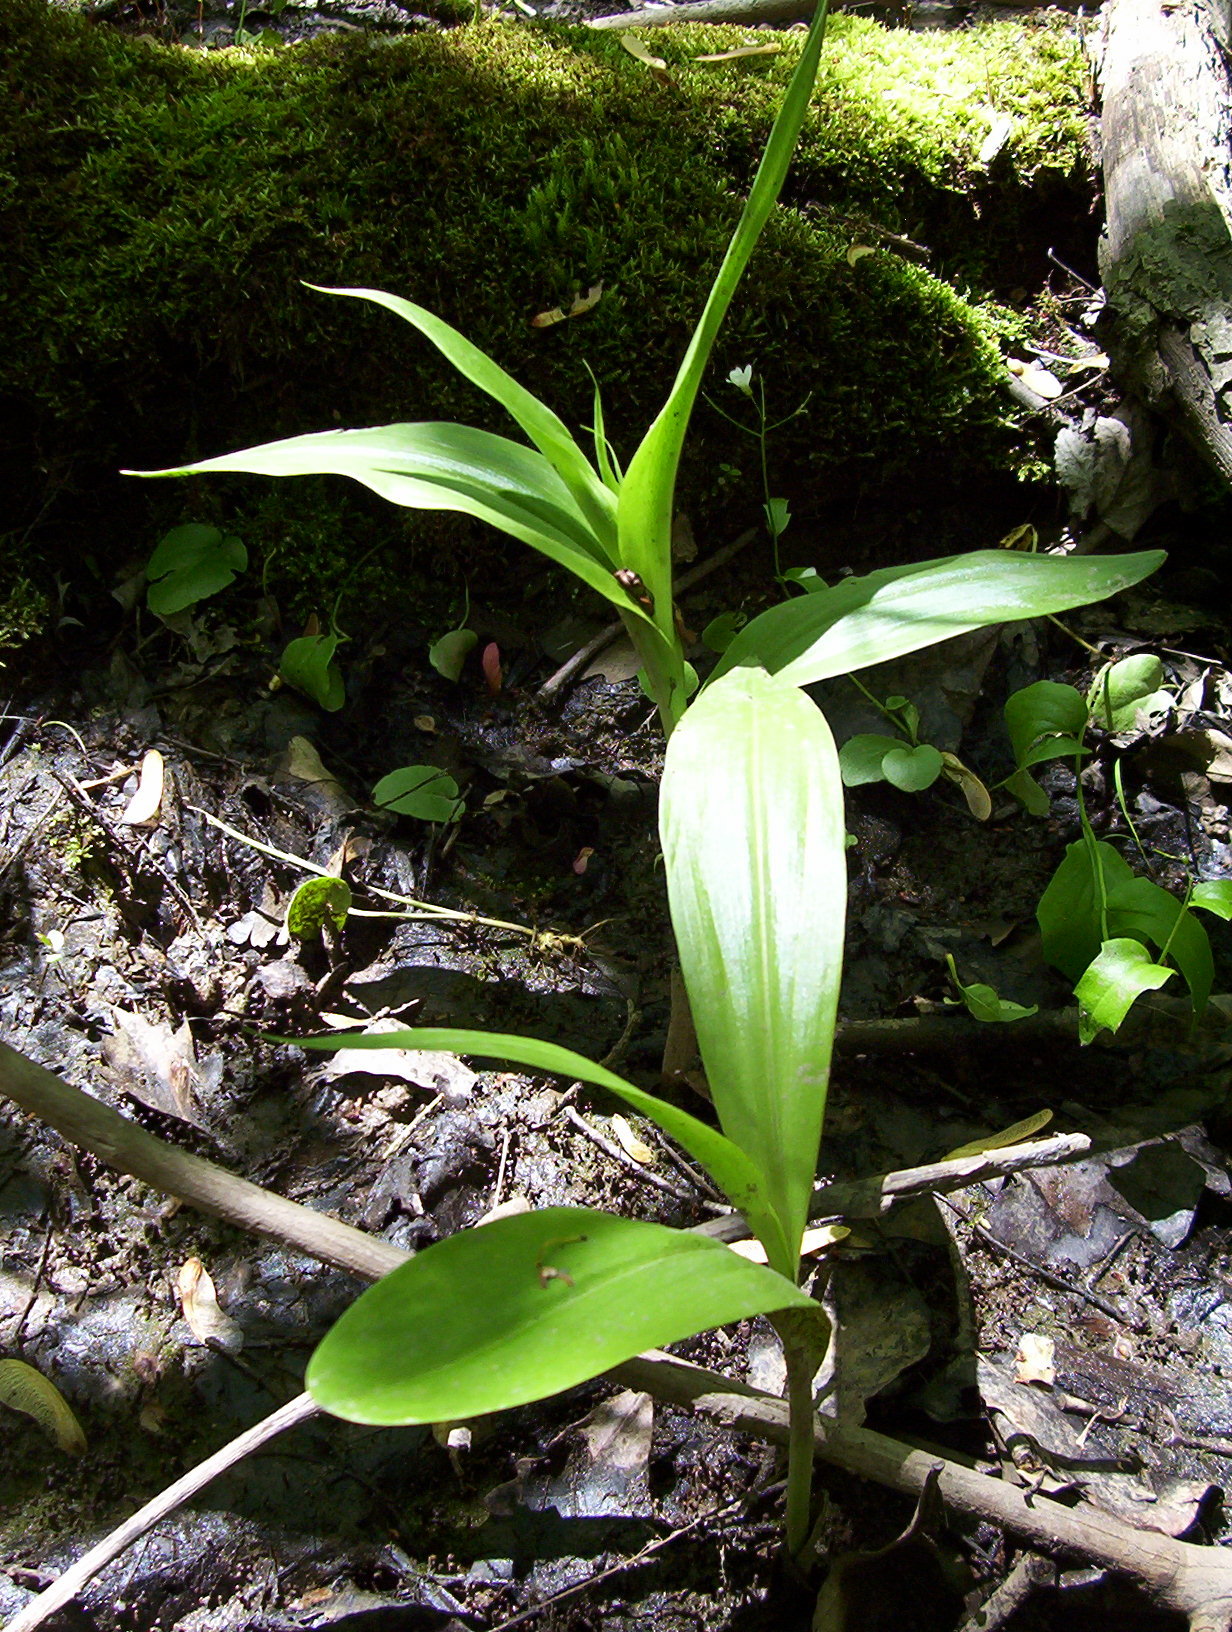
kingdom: Plantae
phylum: Tracheophyta
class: Liliopsida
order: Asparagales
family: Orchidaceae
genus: Platanthera
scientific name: Platanthera flava
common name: Gypsy-spikes
